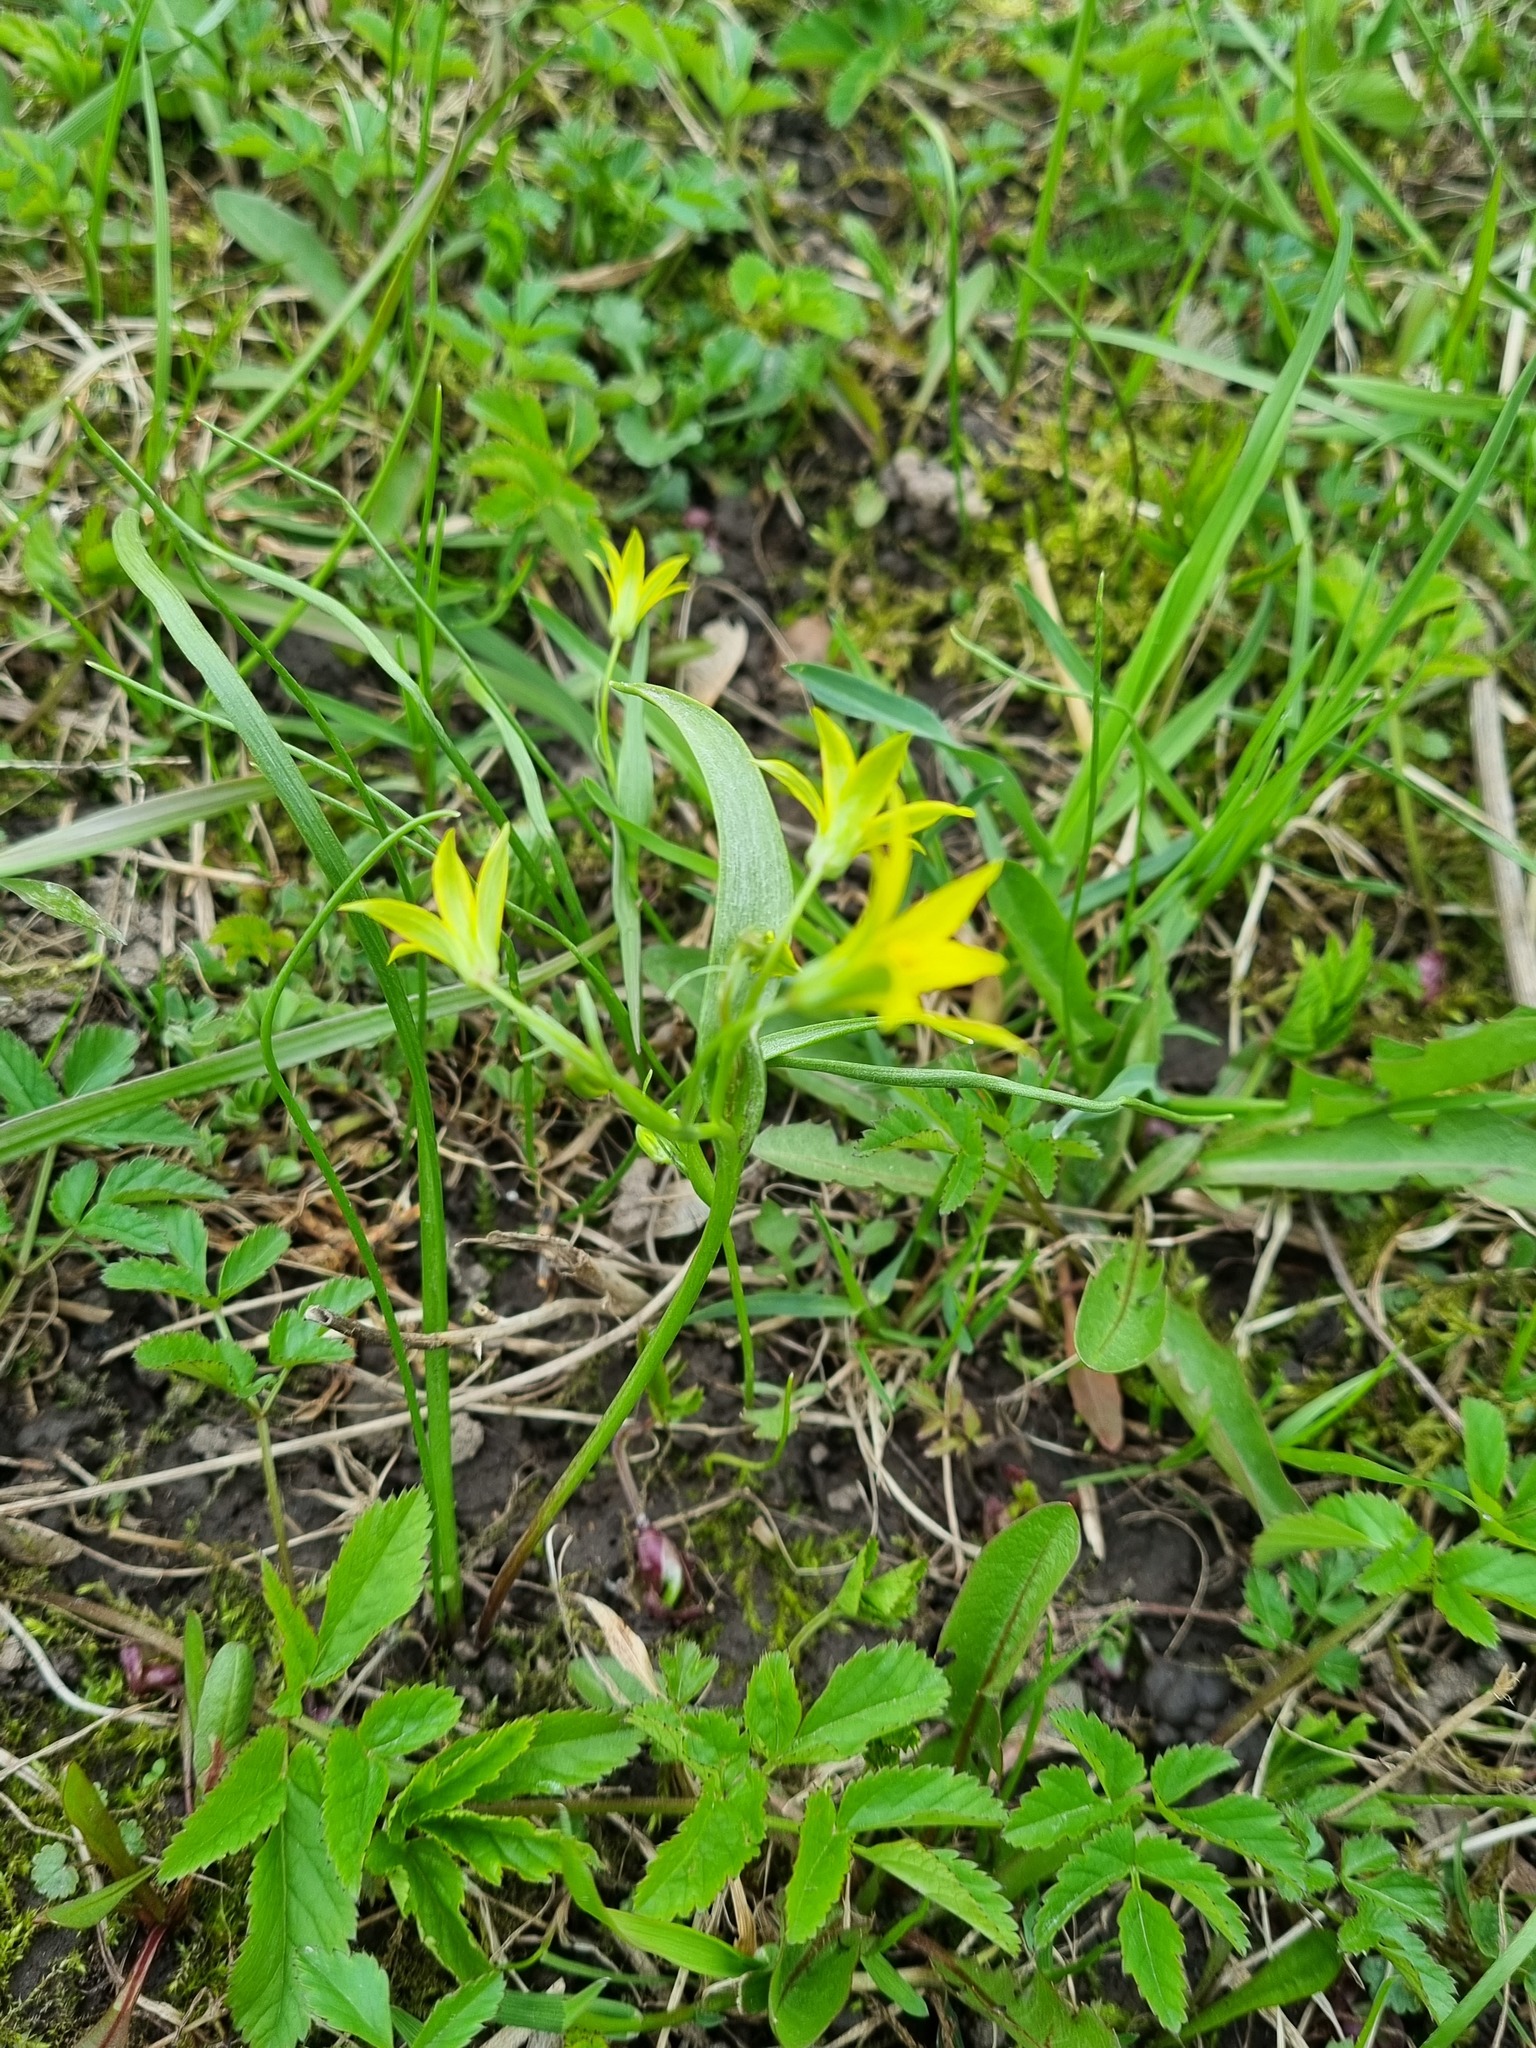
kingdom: Plantae
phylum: Tracheophyta
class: Liliopsida
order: Liliales
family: Liliaceae
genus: Gagea
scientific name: Gagea minima
